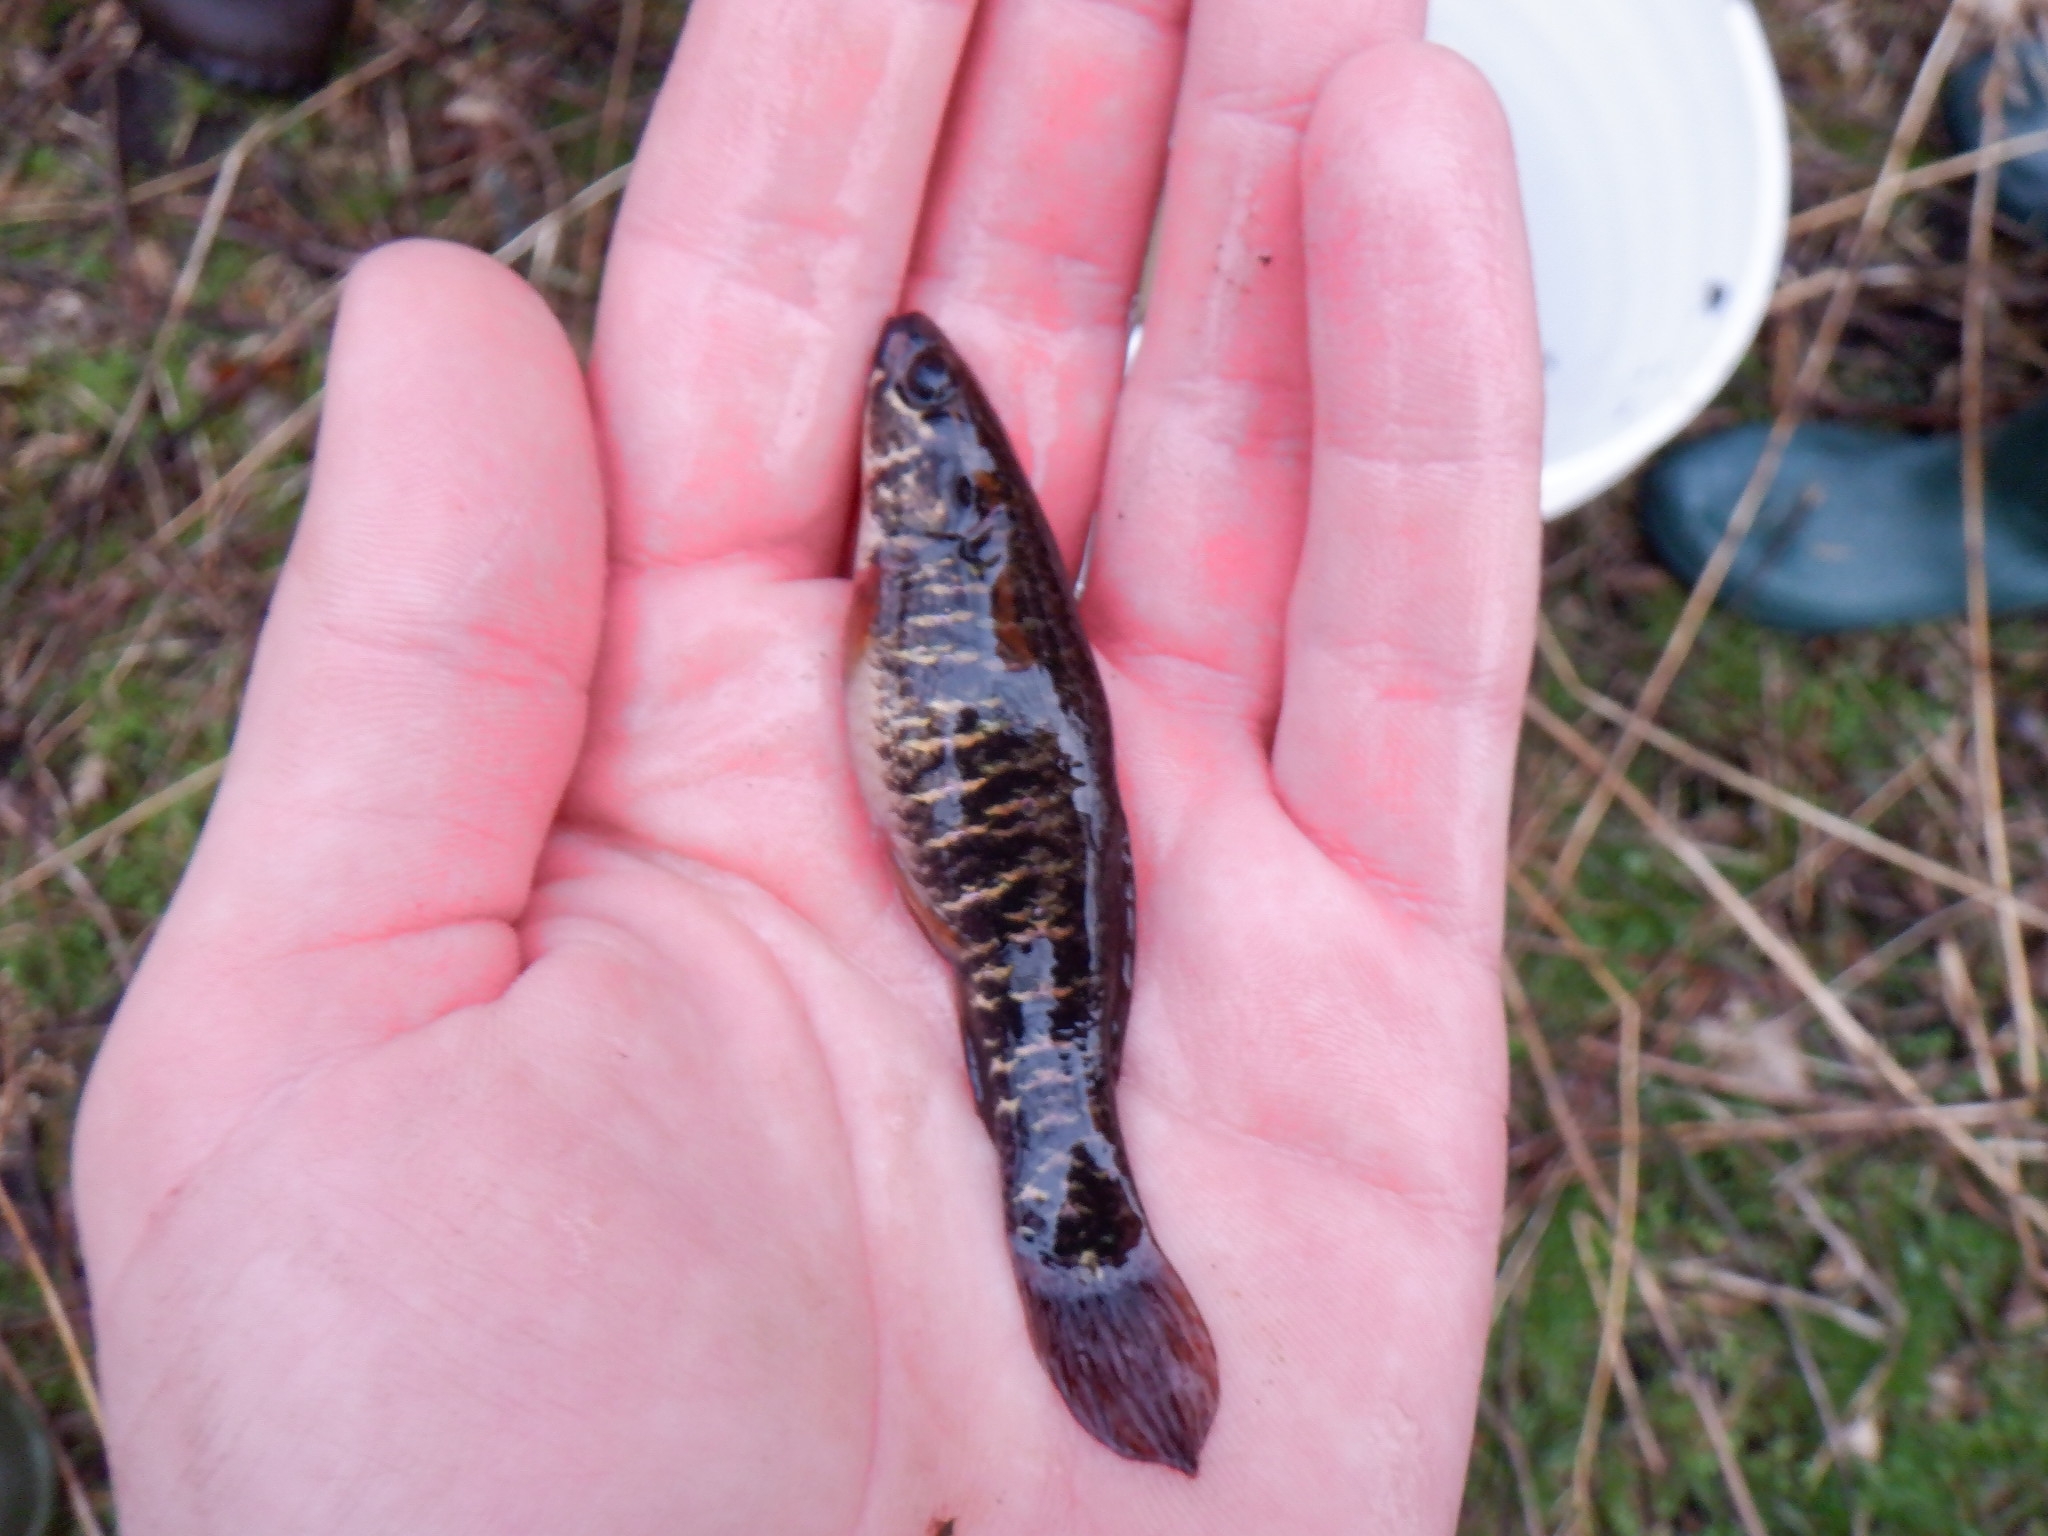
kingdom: Animalia
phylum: Chordata
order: Esociformes
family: Umbridae
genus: Umbra
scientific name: Umbra limi
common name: Central mudminnow
